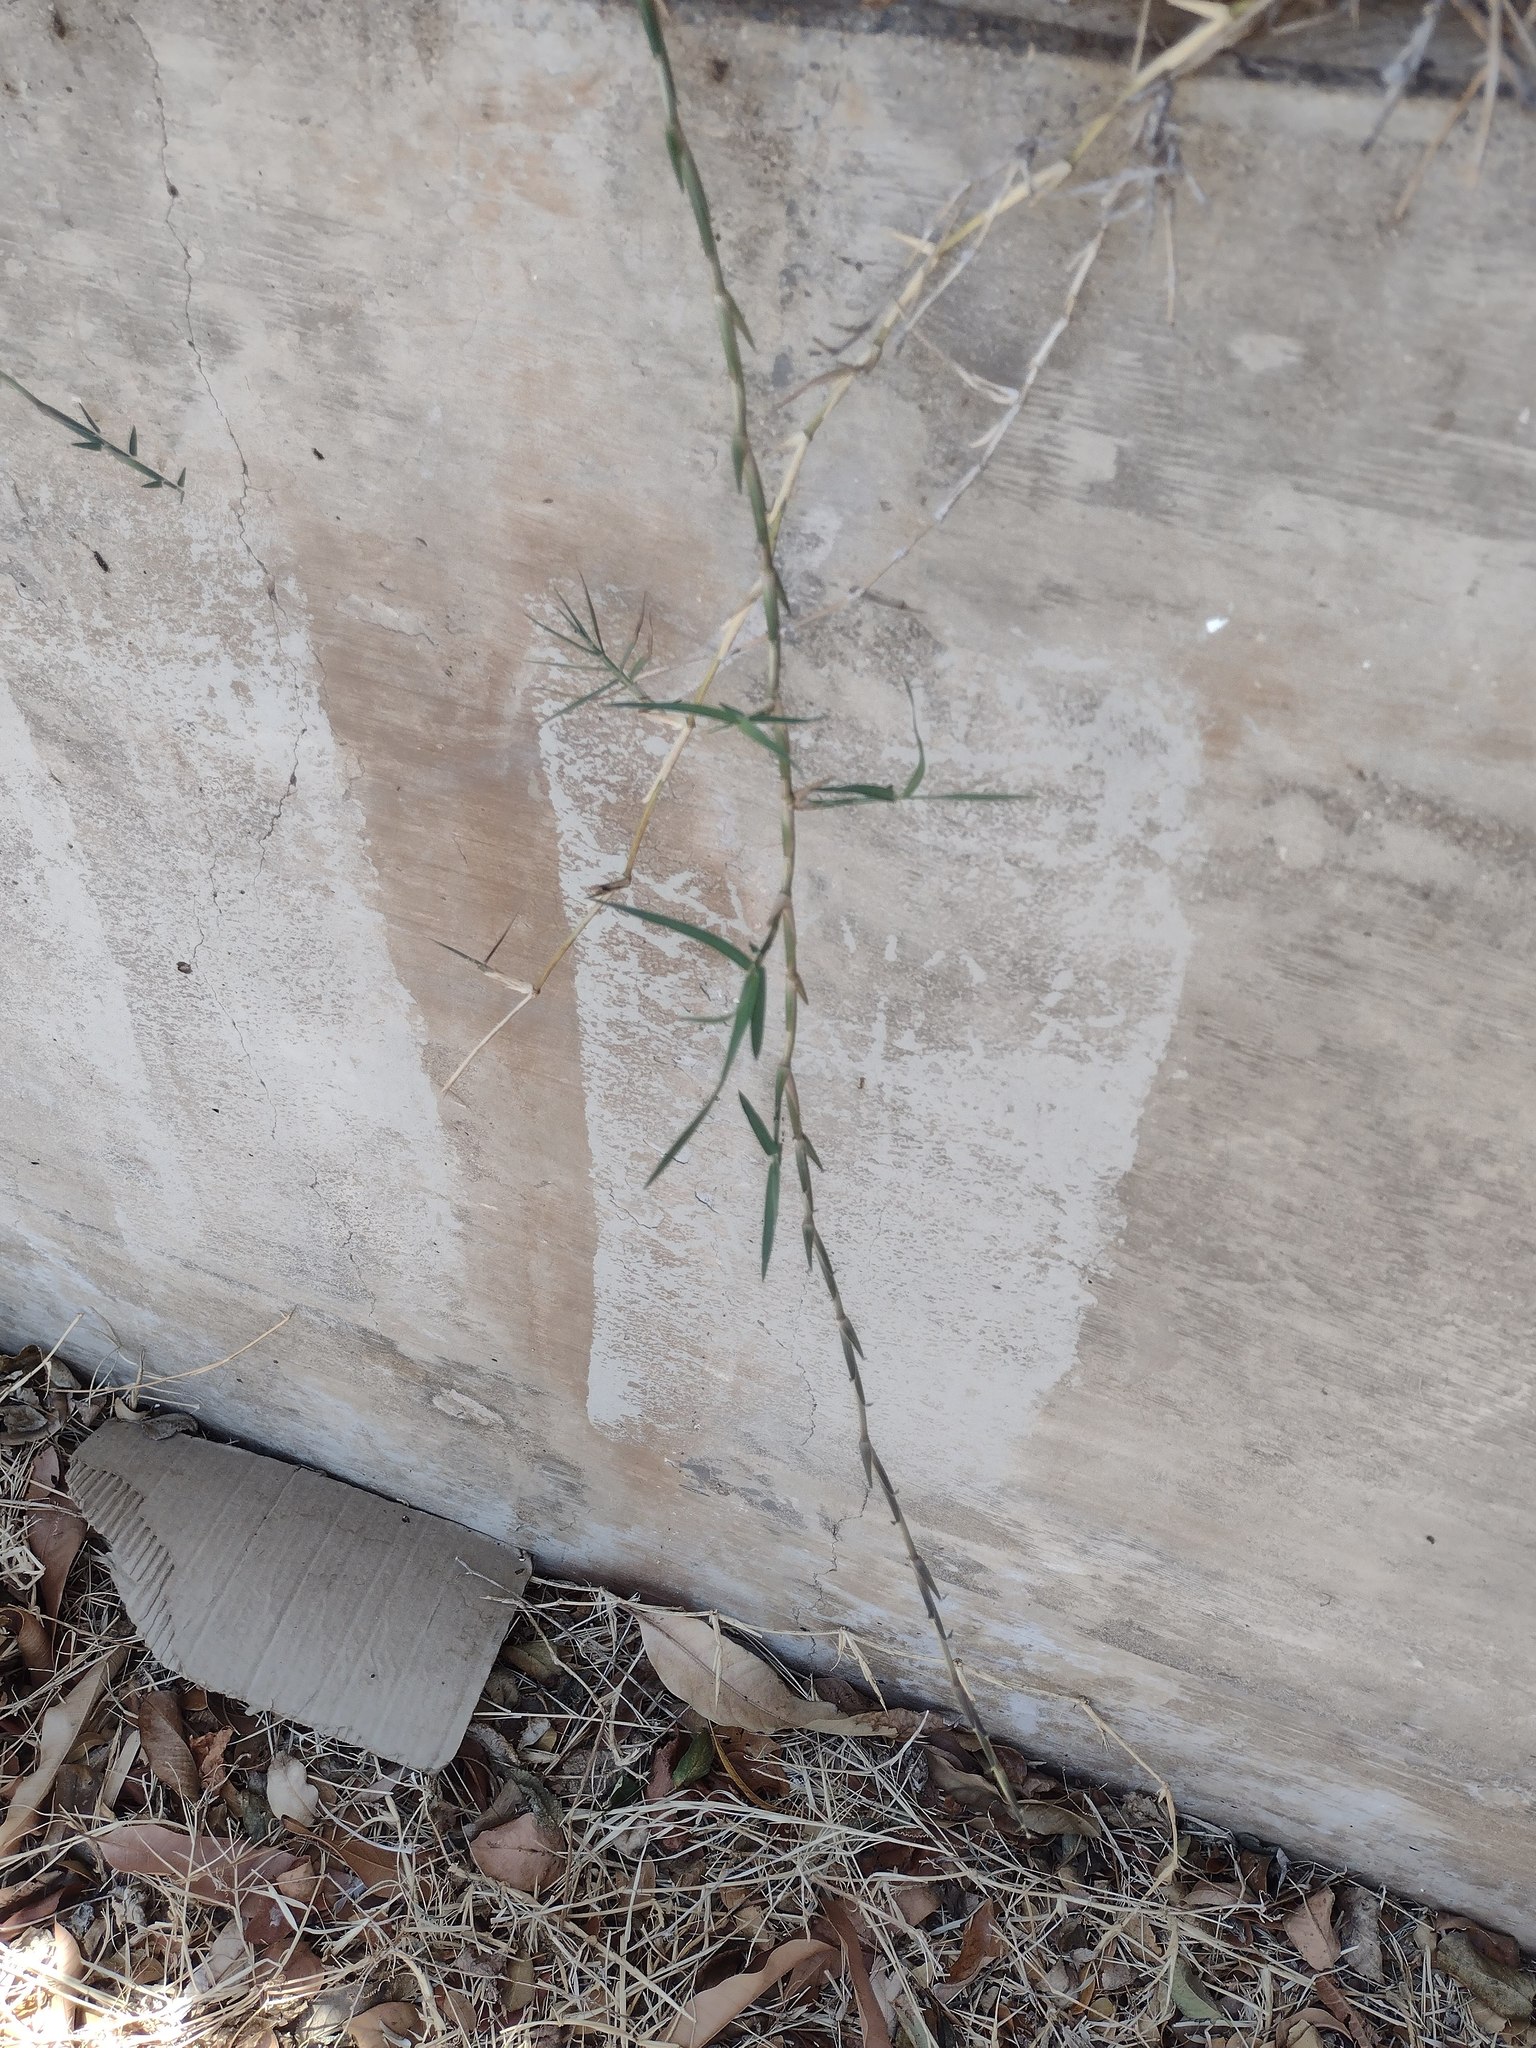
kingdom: Plantae
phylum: Tracheophyta
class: Liliopsida
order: Poales
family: Poaceae
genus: Cynodon
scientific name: Cynodon nlemfuensis
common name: African bermudagrass
